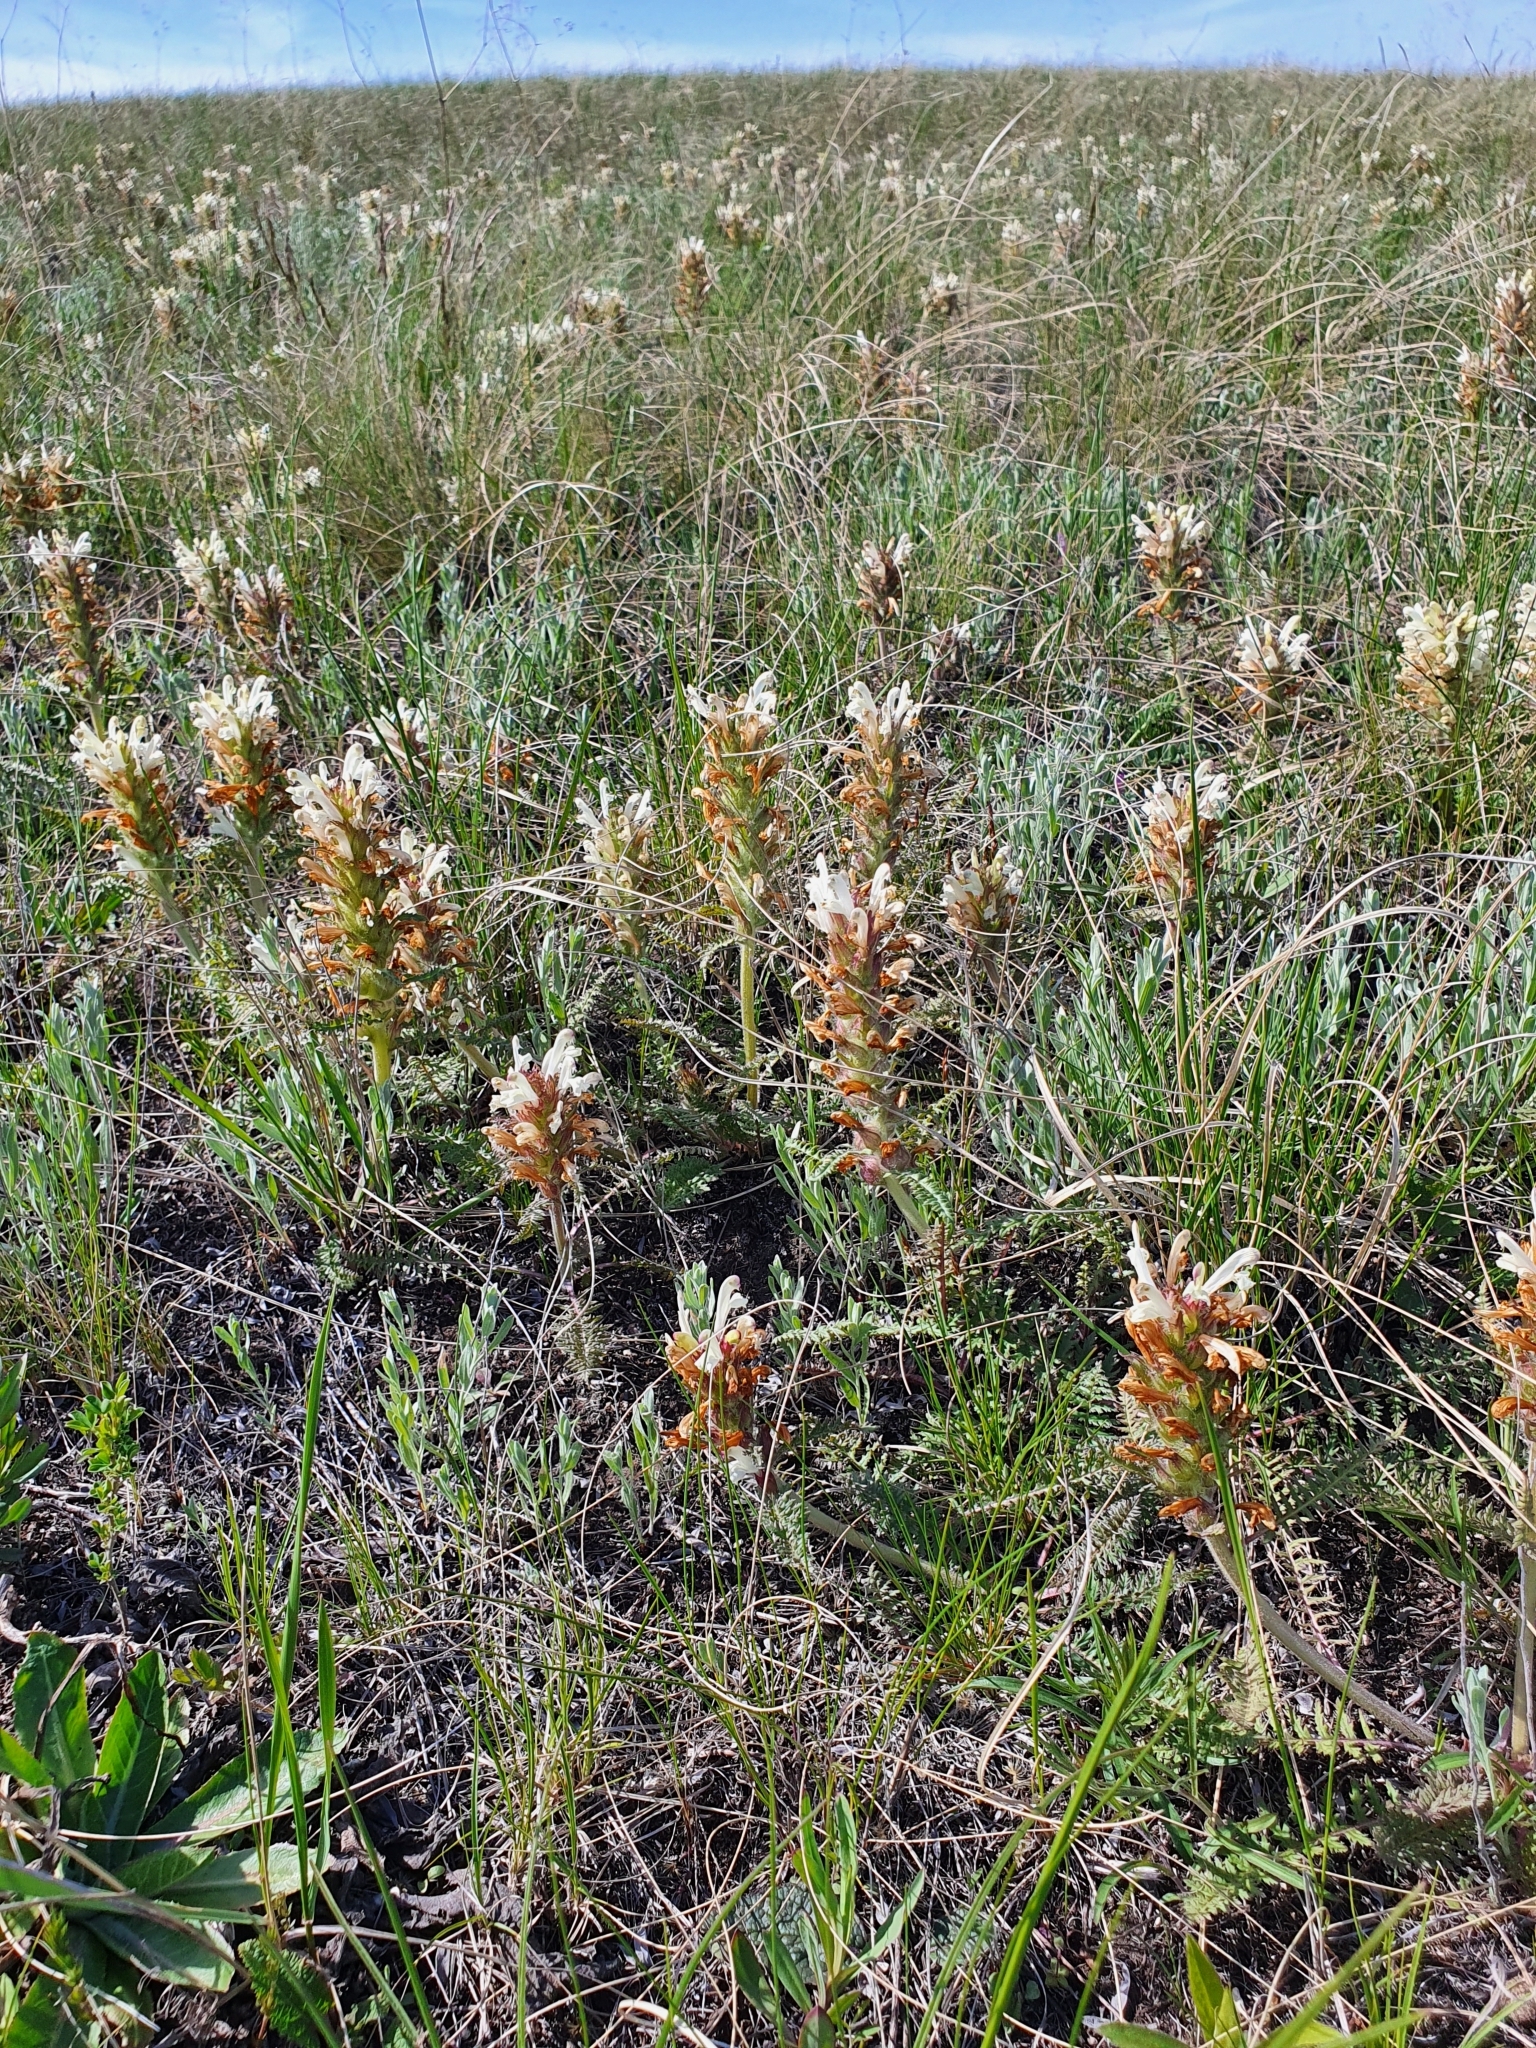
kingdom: Plantae
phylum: Tracheophyta
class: Magnoliopsida
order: Lamiales
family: Orobanchaceae
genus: Pedicularis
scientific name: Pedicularis physocalyx
